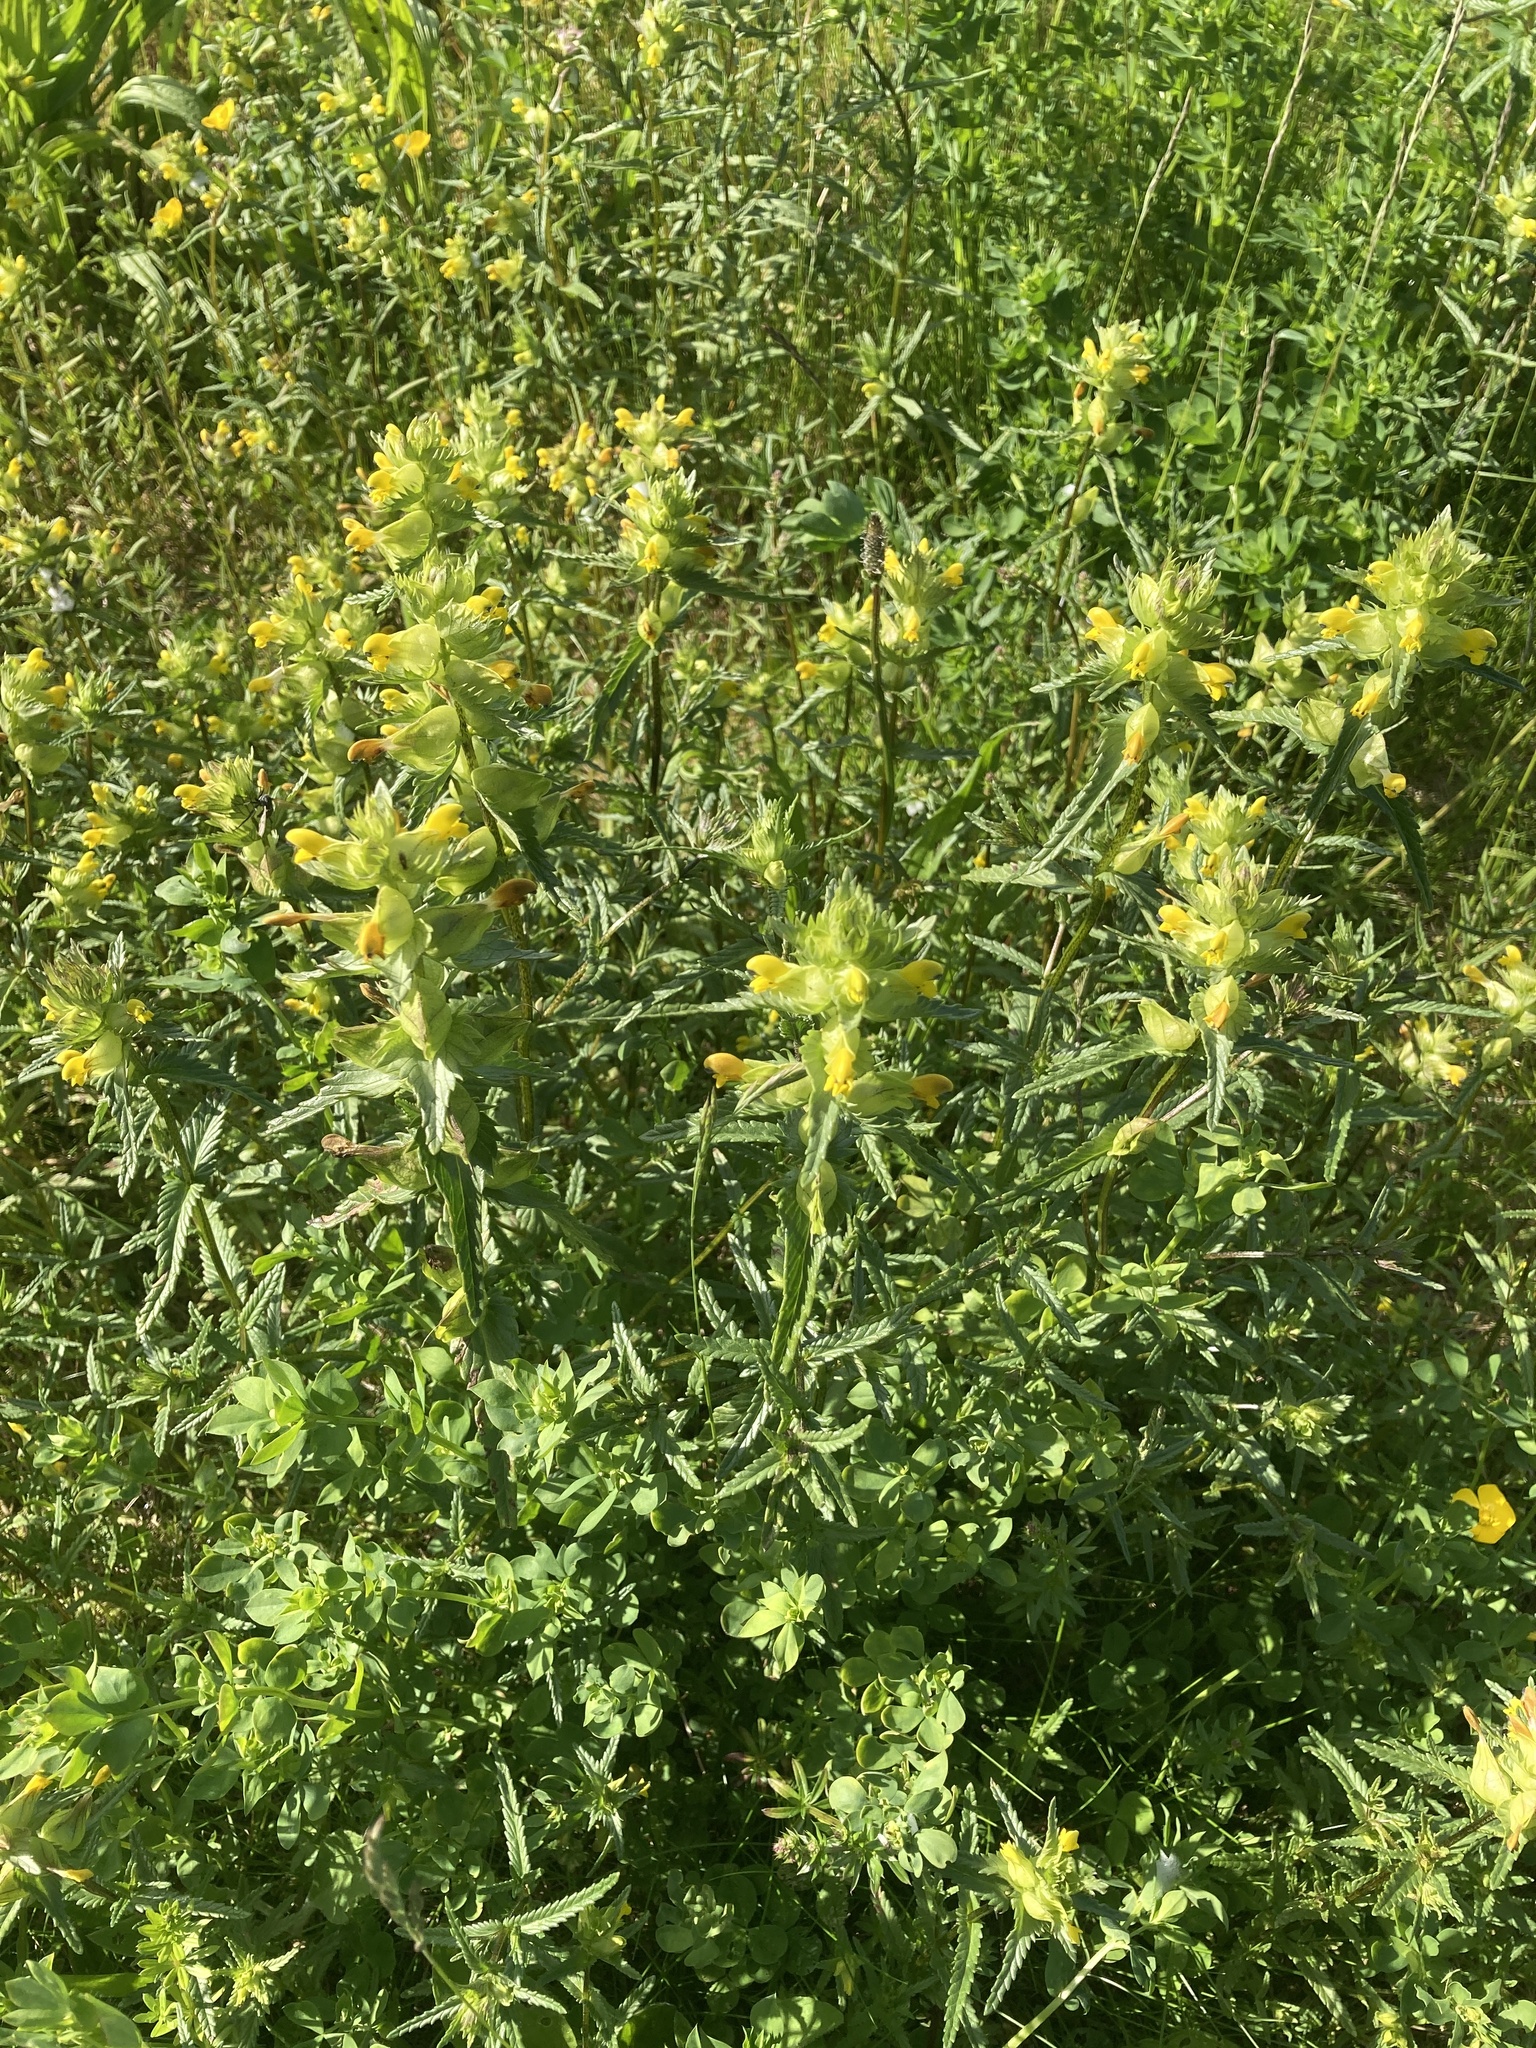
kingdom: Plantae
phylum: Tracheophyta
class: Magnoliopsida
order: Lamiales
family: Orobanchaceae
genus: Rhinanthus
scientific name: Rhinanthus minor
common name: Yellow-rattle
